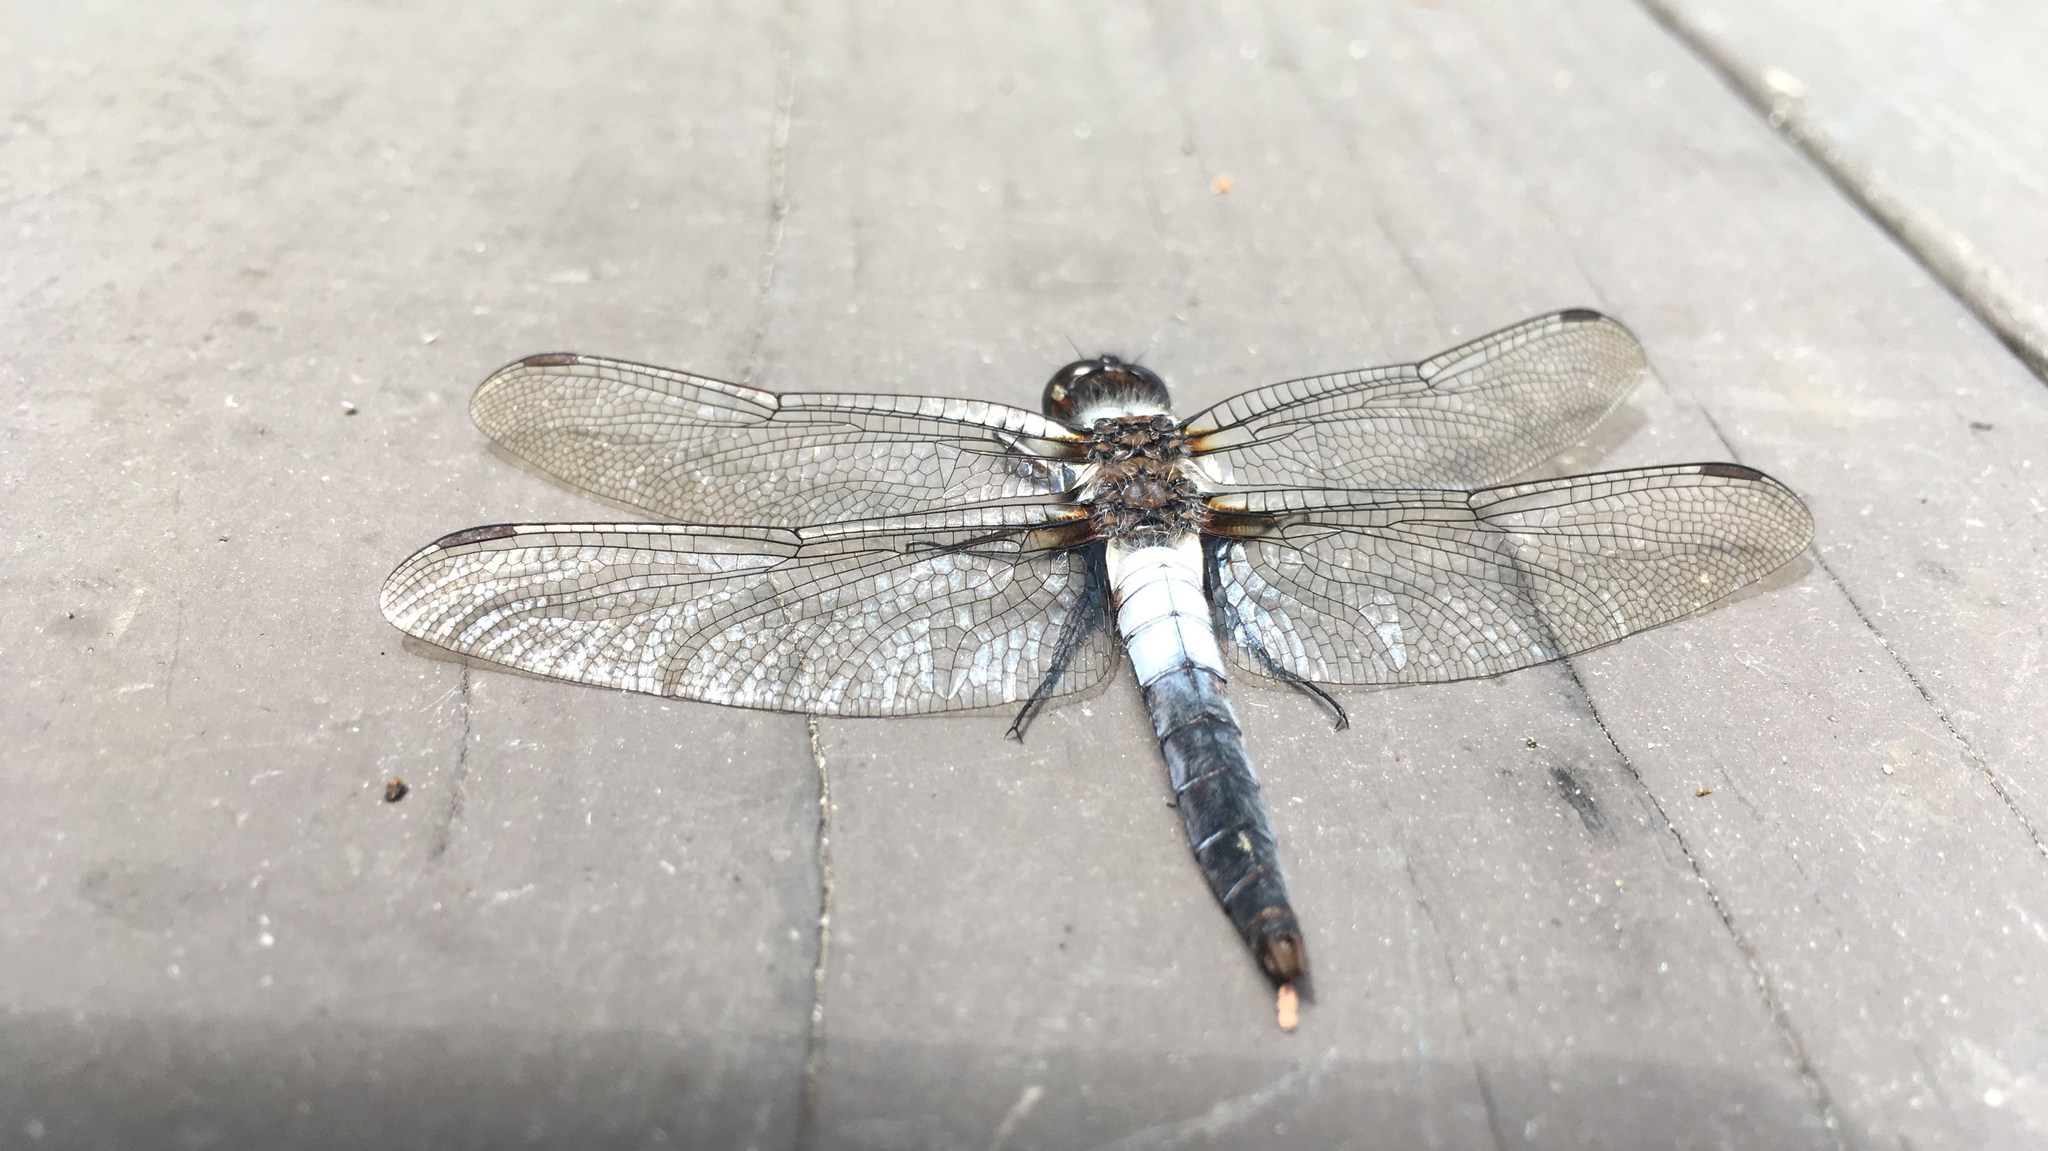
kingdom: Animalia
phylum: Arthropoda
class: Insecta
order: Odonata
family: Libellulidae
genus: Ladona
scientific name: Ladona julia
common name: Chalk-fronted corporal
